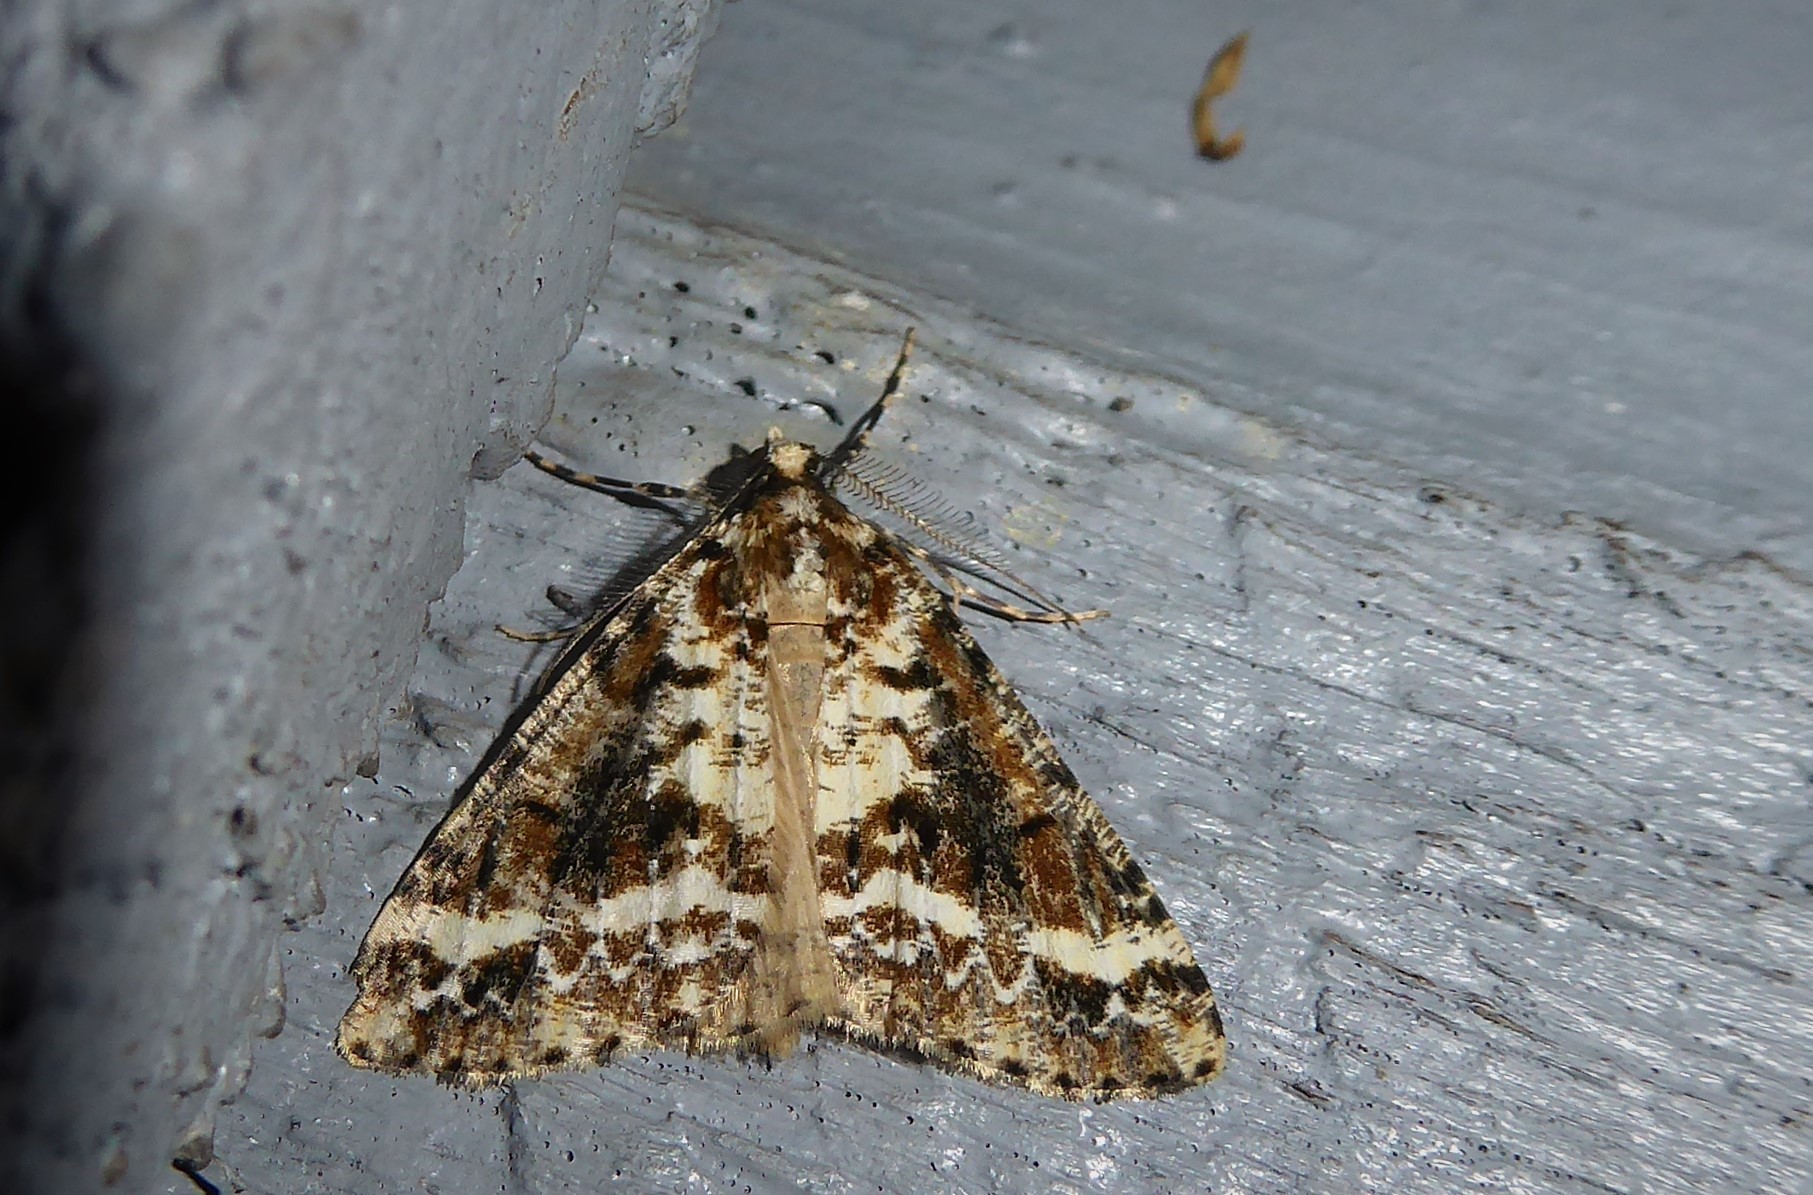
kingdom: Animalia
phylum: Arthropoda
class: Insecta
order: Lepidoptera
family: Geometridae
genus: Pseudocoremia
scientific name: Pseudocoremia leucelaea
